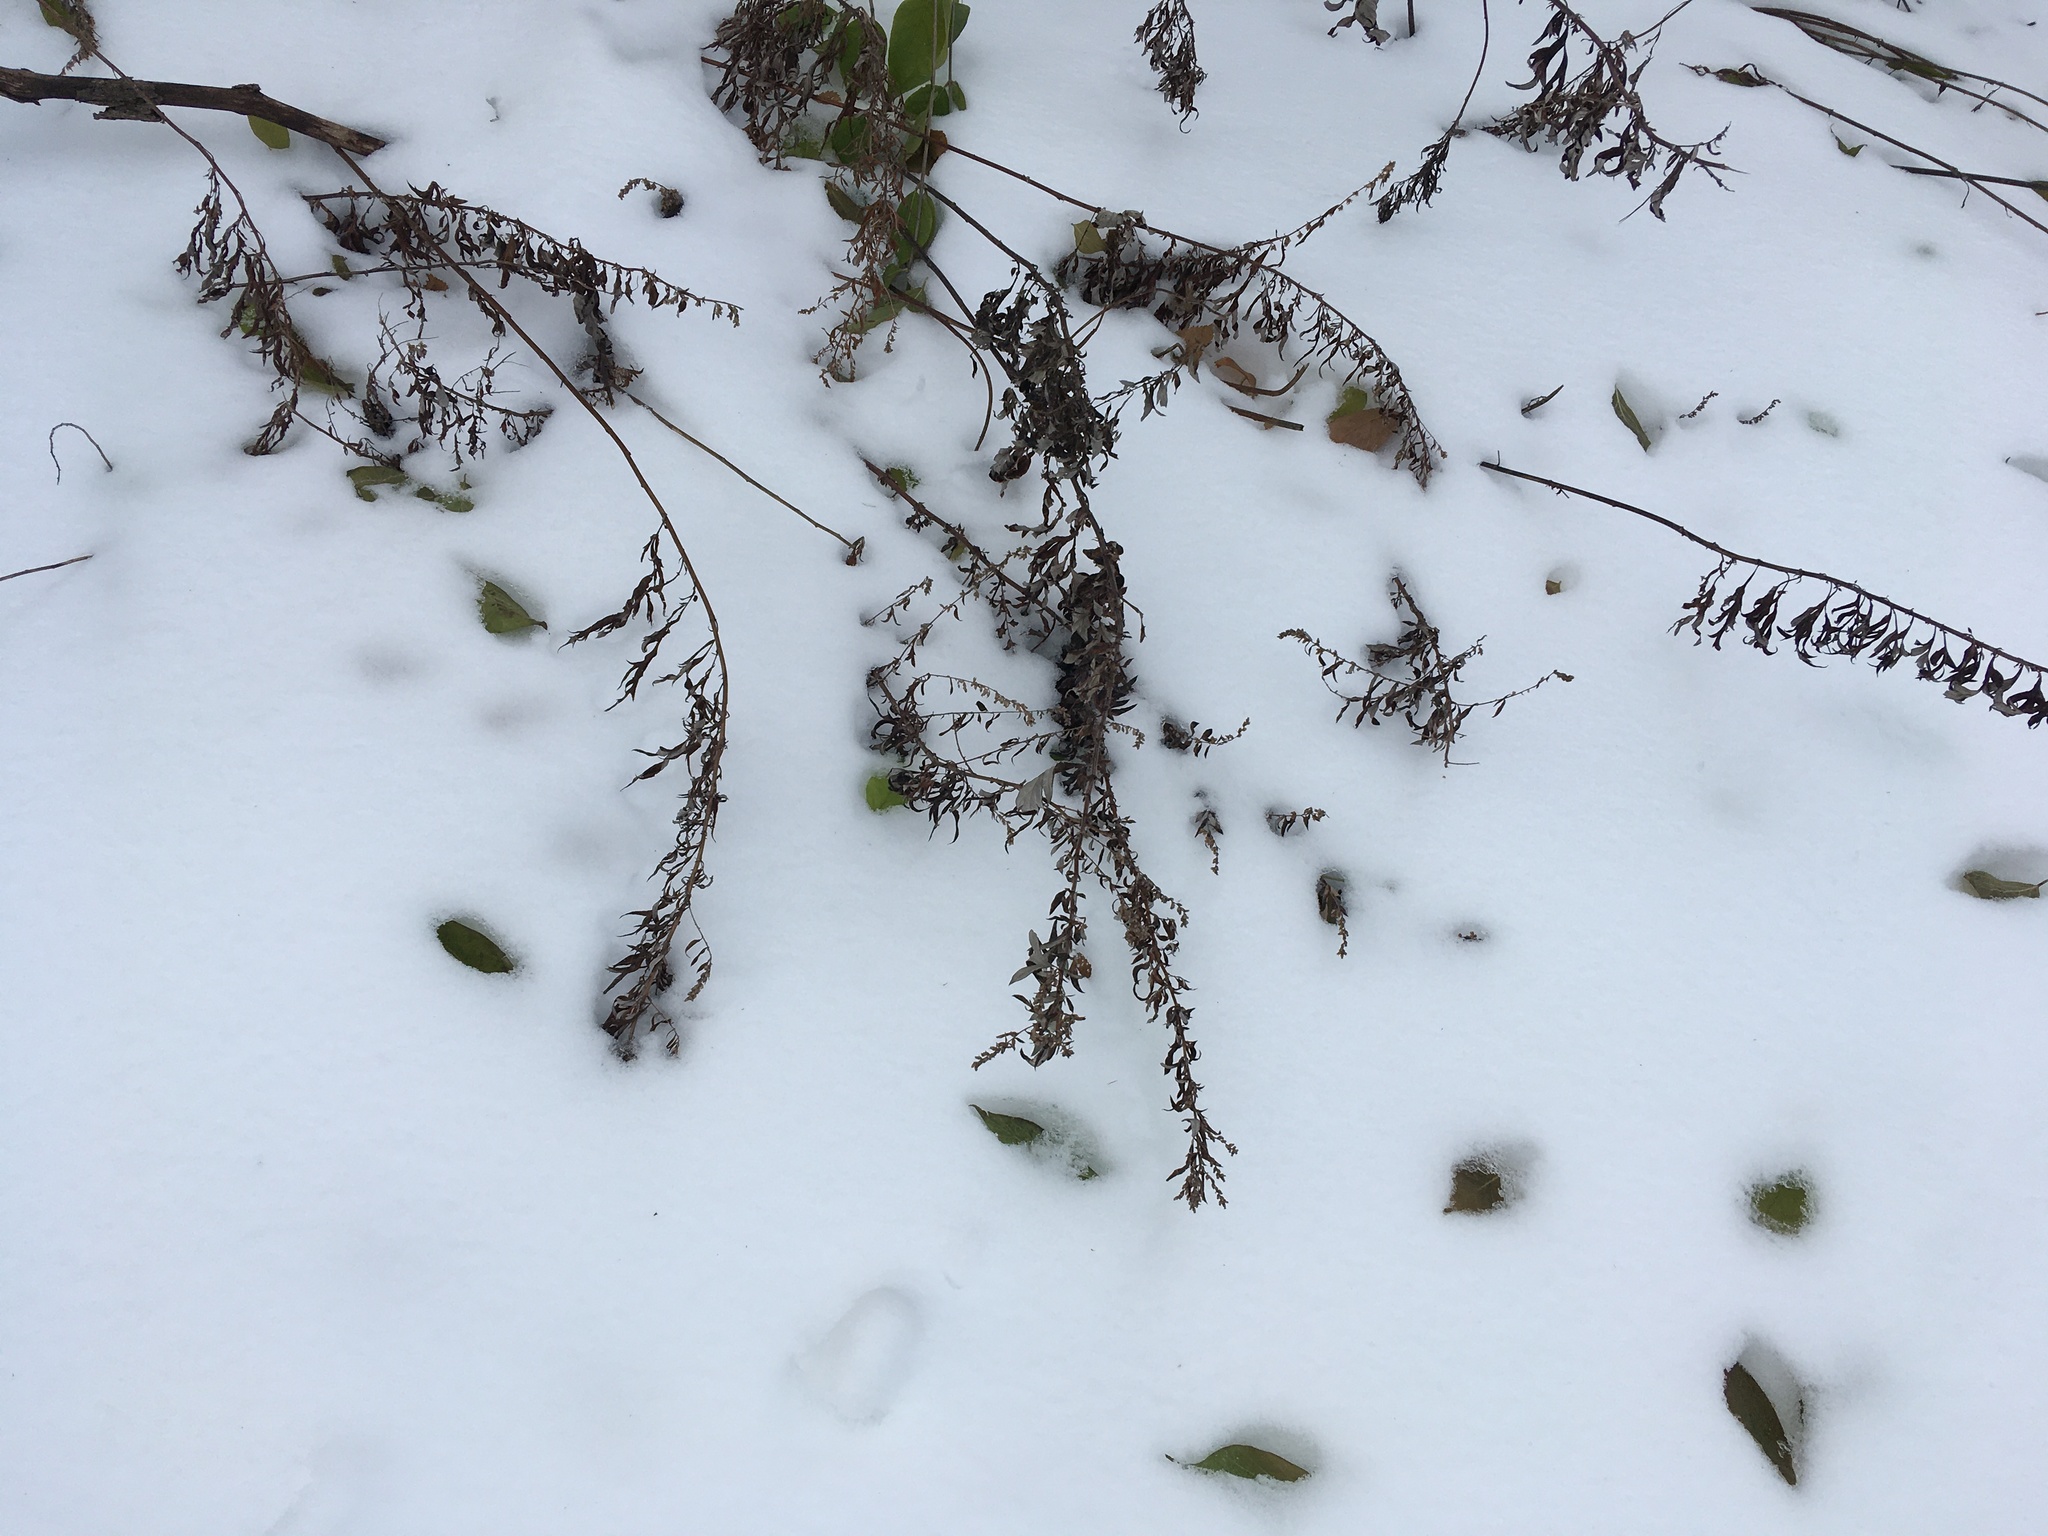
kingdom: Plantae
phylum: Tracheophyta
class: Magnoliopsida
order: Asterales
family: Asteraceae
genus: Artemisia
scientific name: Artemisia vulgaris
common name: Mugwort
